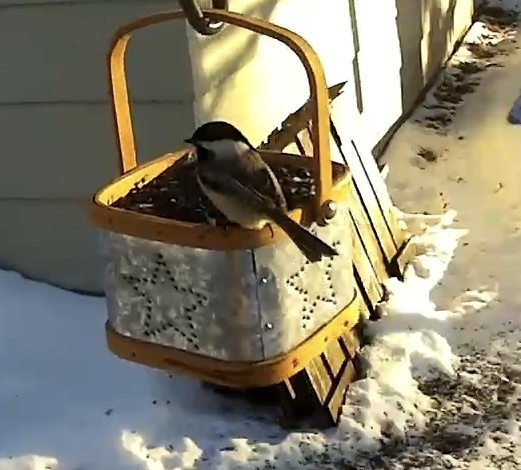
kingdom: Animalia
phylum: Chordata
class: Aves
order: Passeriformes
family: Paridae
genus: Poecile
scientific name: Poecile atricapillus
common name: Black-capped chickadee
